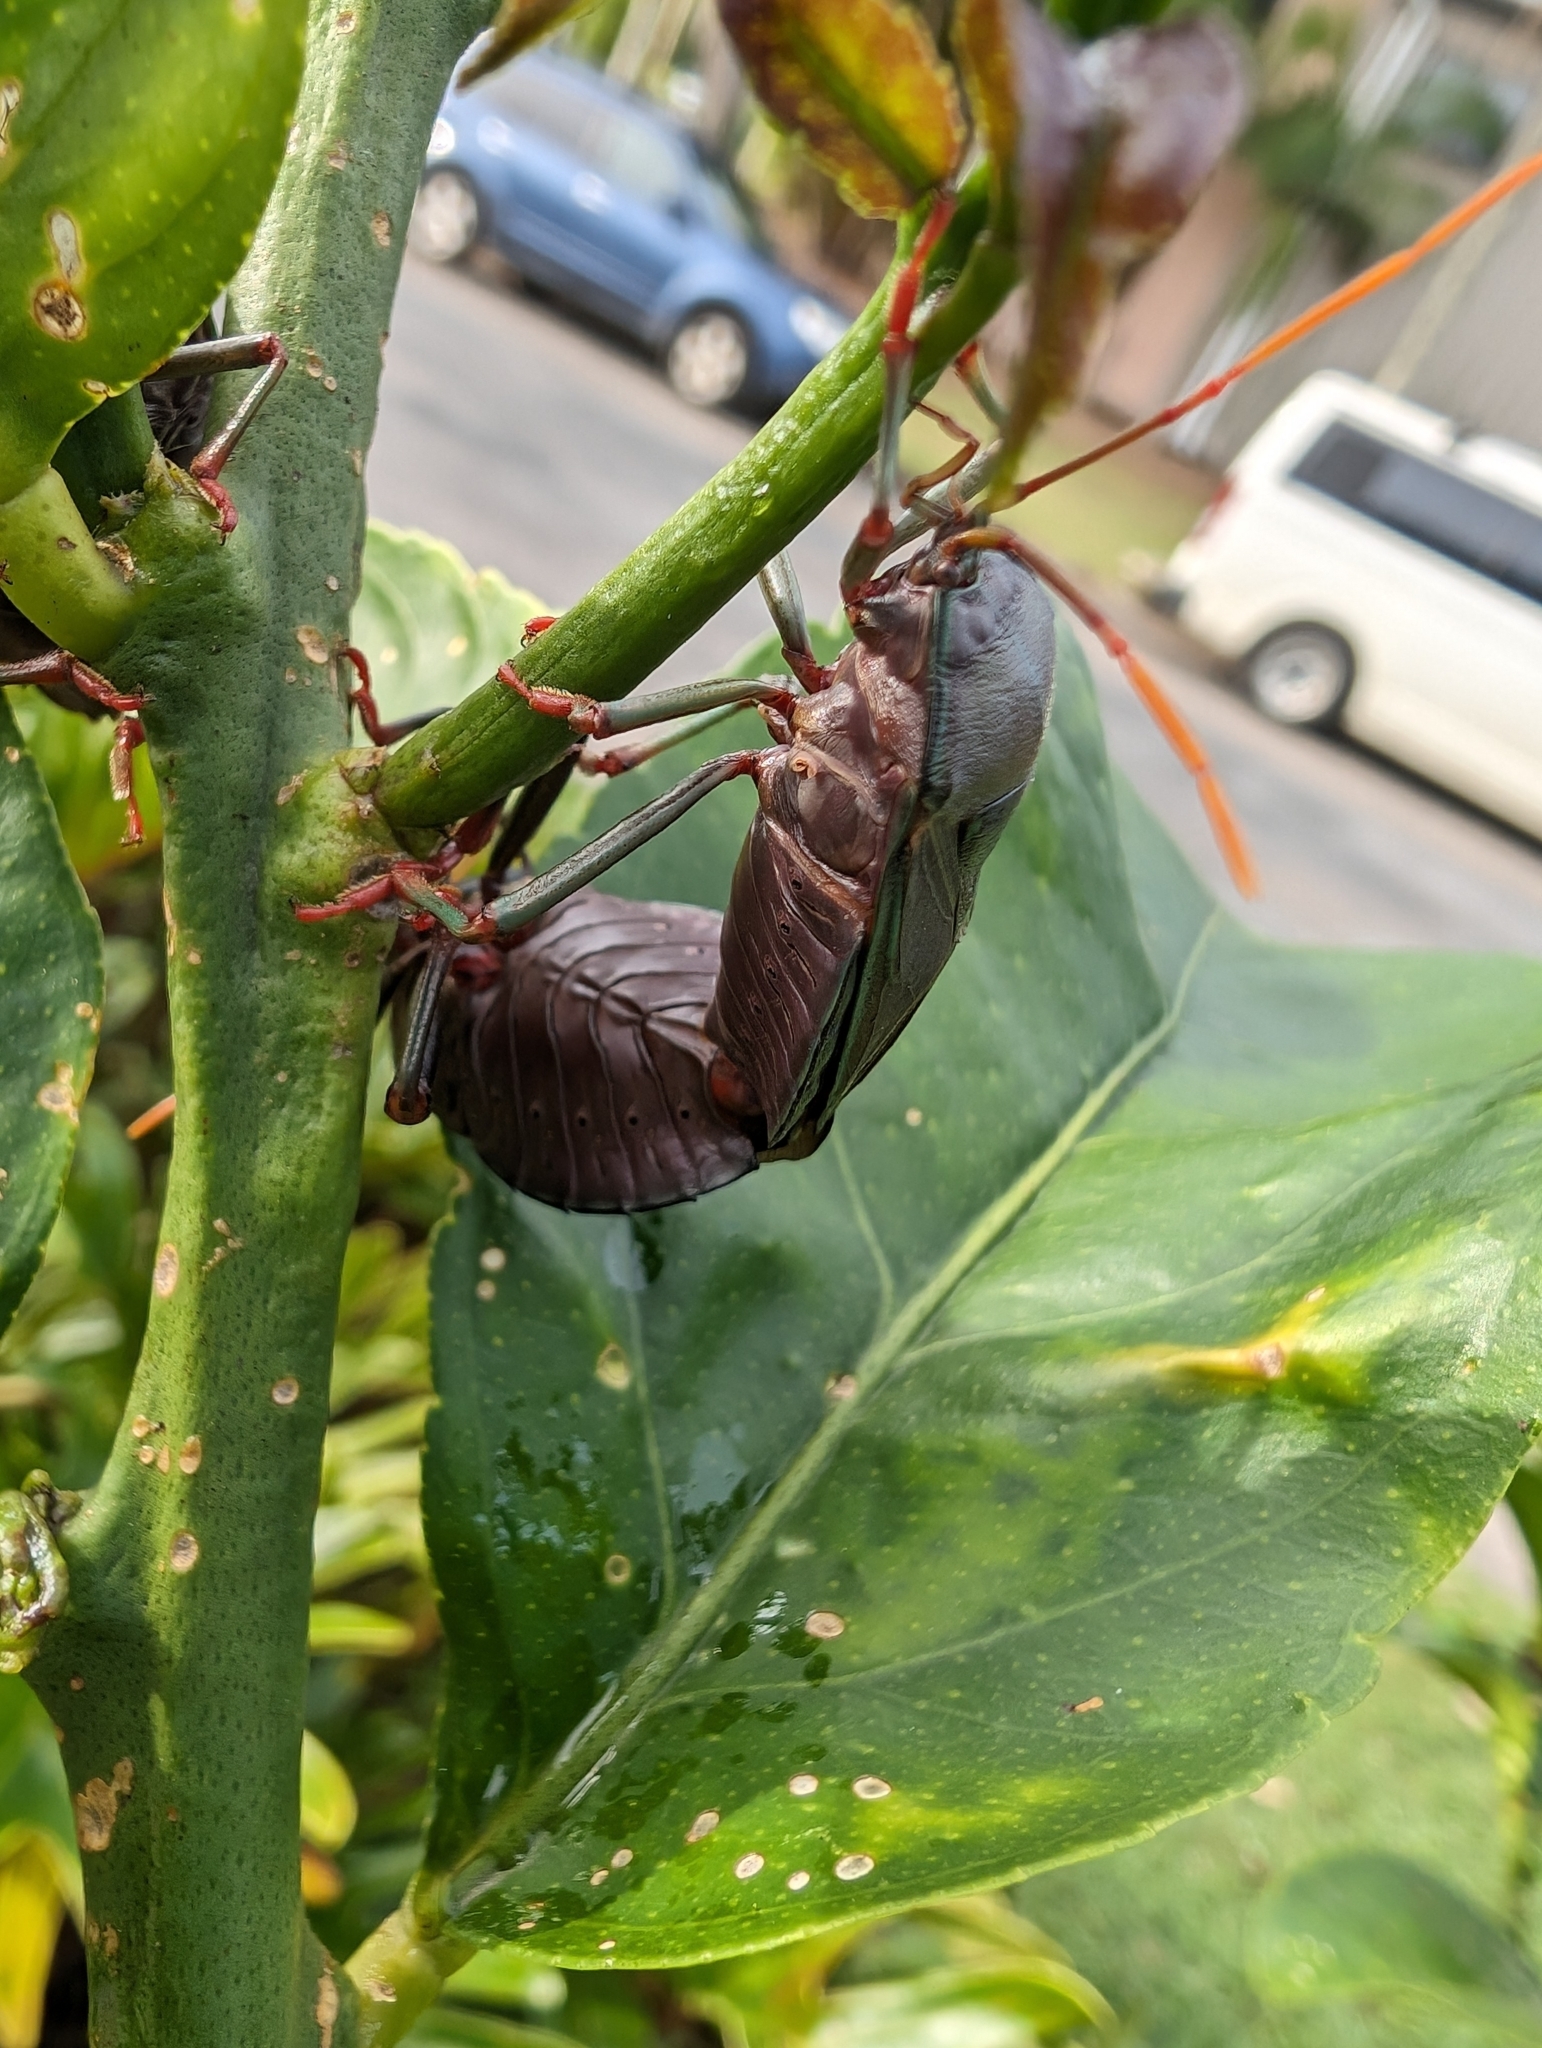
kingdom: Animalia
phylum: Arthropoda
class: Insecta
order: Hemiptera
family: Tessaratomidae
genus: Musgraveia
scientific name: Musgraveia sulciventris
